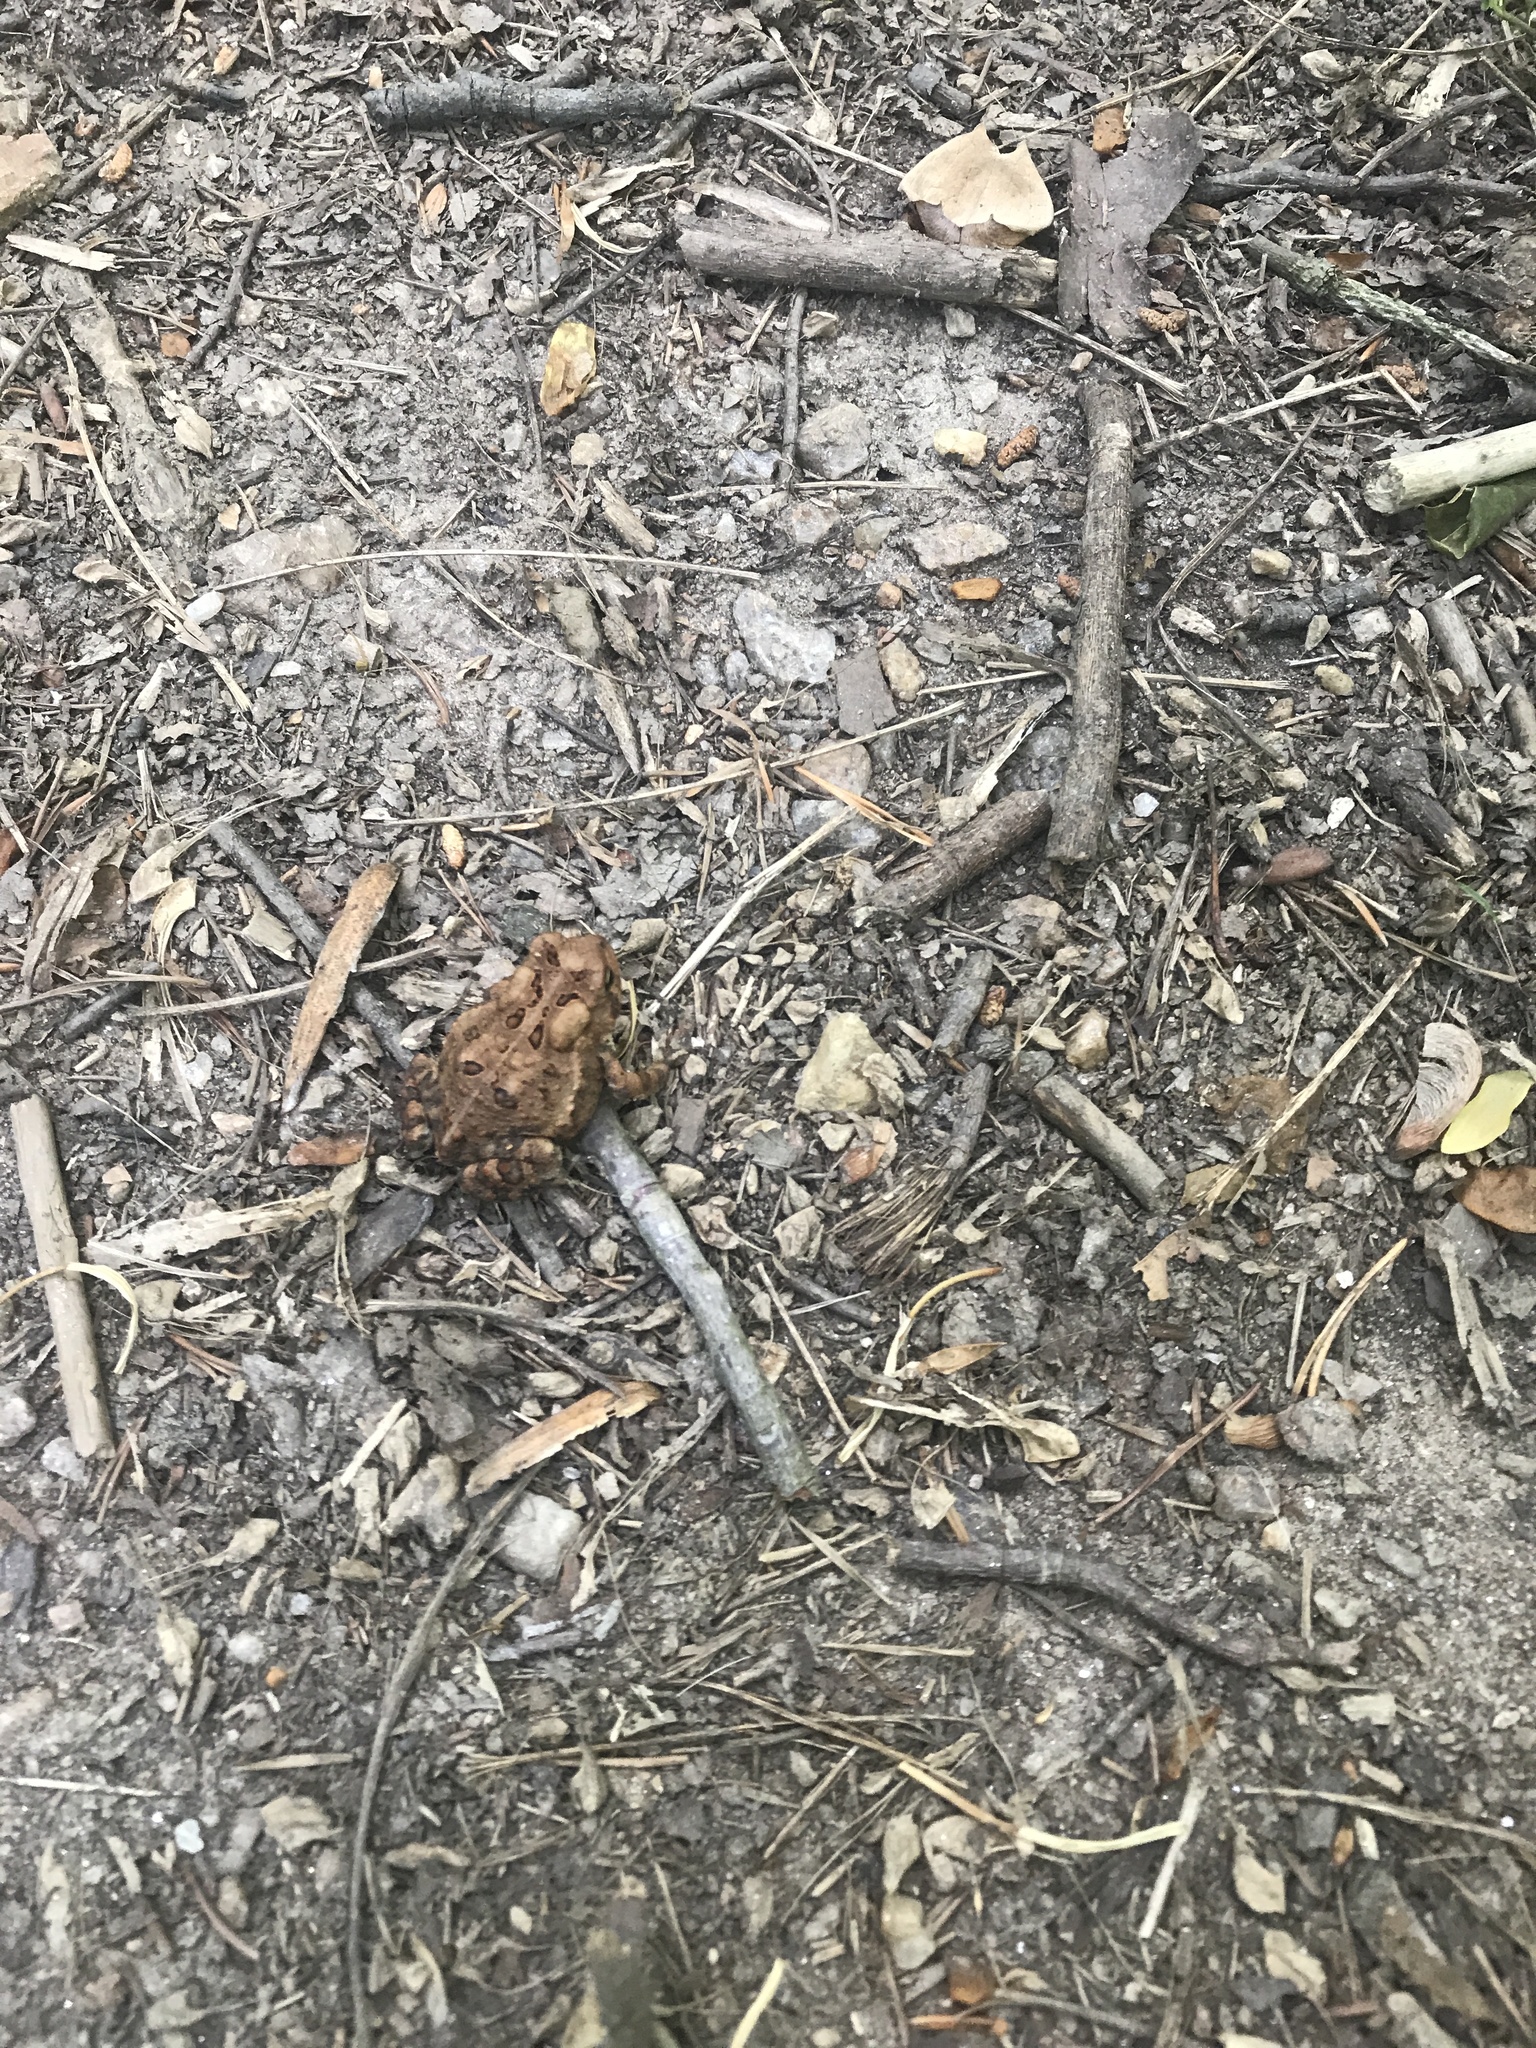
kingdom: Animalia
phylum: Chordata
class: Amphibia
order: Anura
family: Bufonidae
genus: Anaxyrus
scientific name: Anaxyrus americanus
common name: American toad
